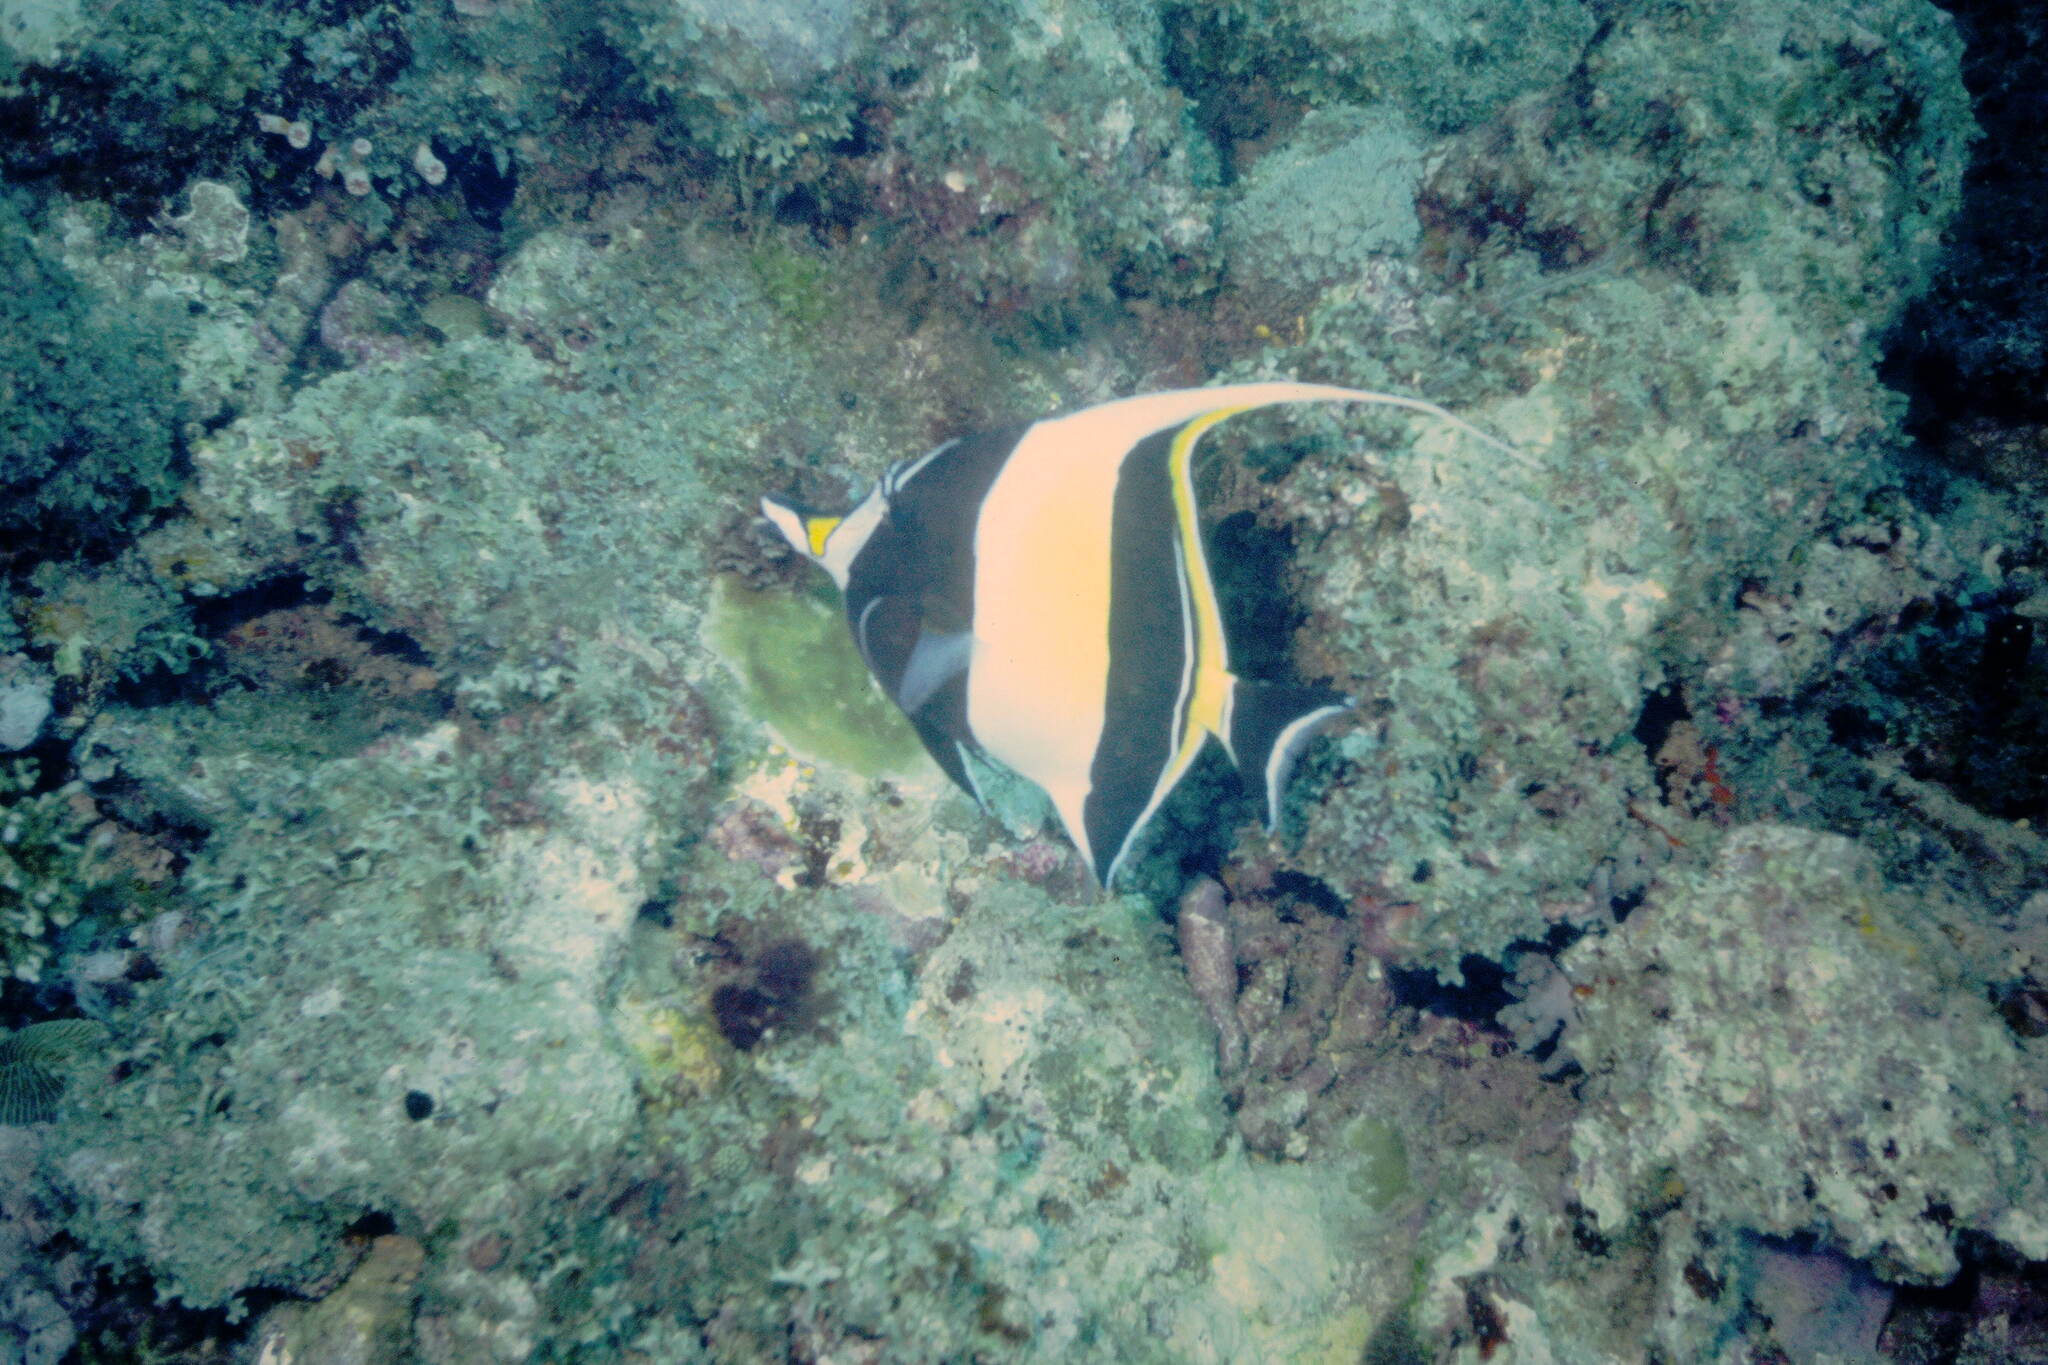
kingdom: Animalia
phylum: Chordata
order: Perciformes
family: Zanclidae
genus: Zanclus
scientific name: Zanclus cornutus
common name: Moorish idol
